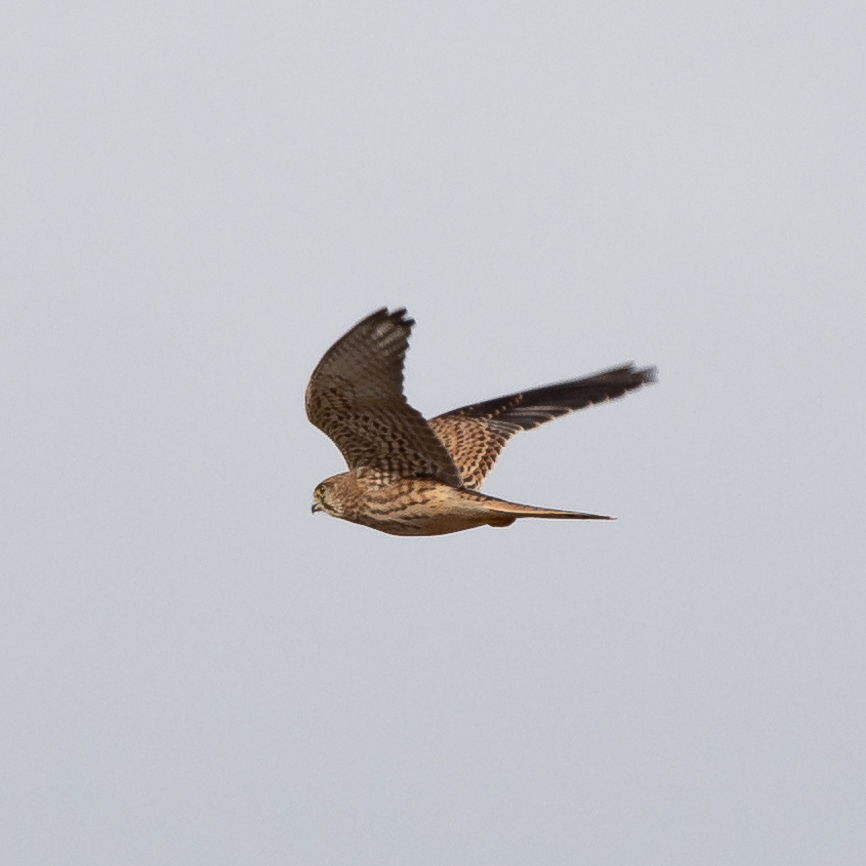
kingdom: Animalia
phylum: Chordata
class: Aves
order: Falconiformes
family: Falconidae
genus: Falco
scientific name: Falco tinnunculus
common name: Common kestrel
